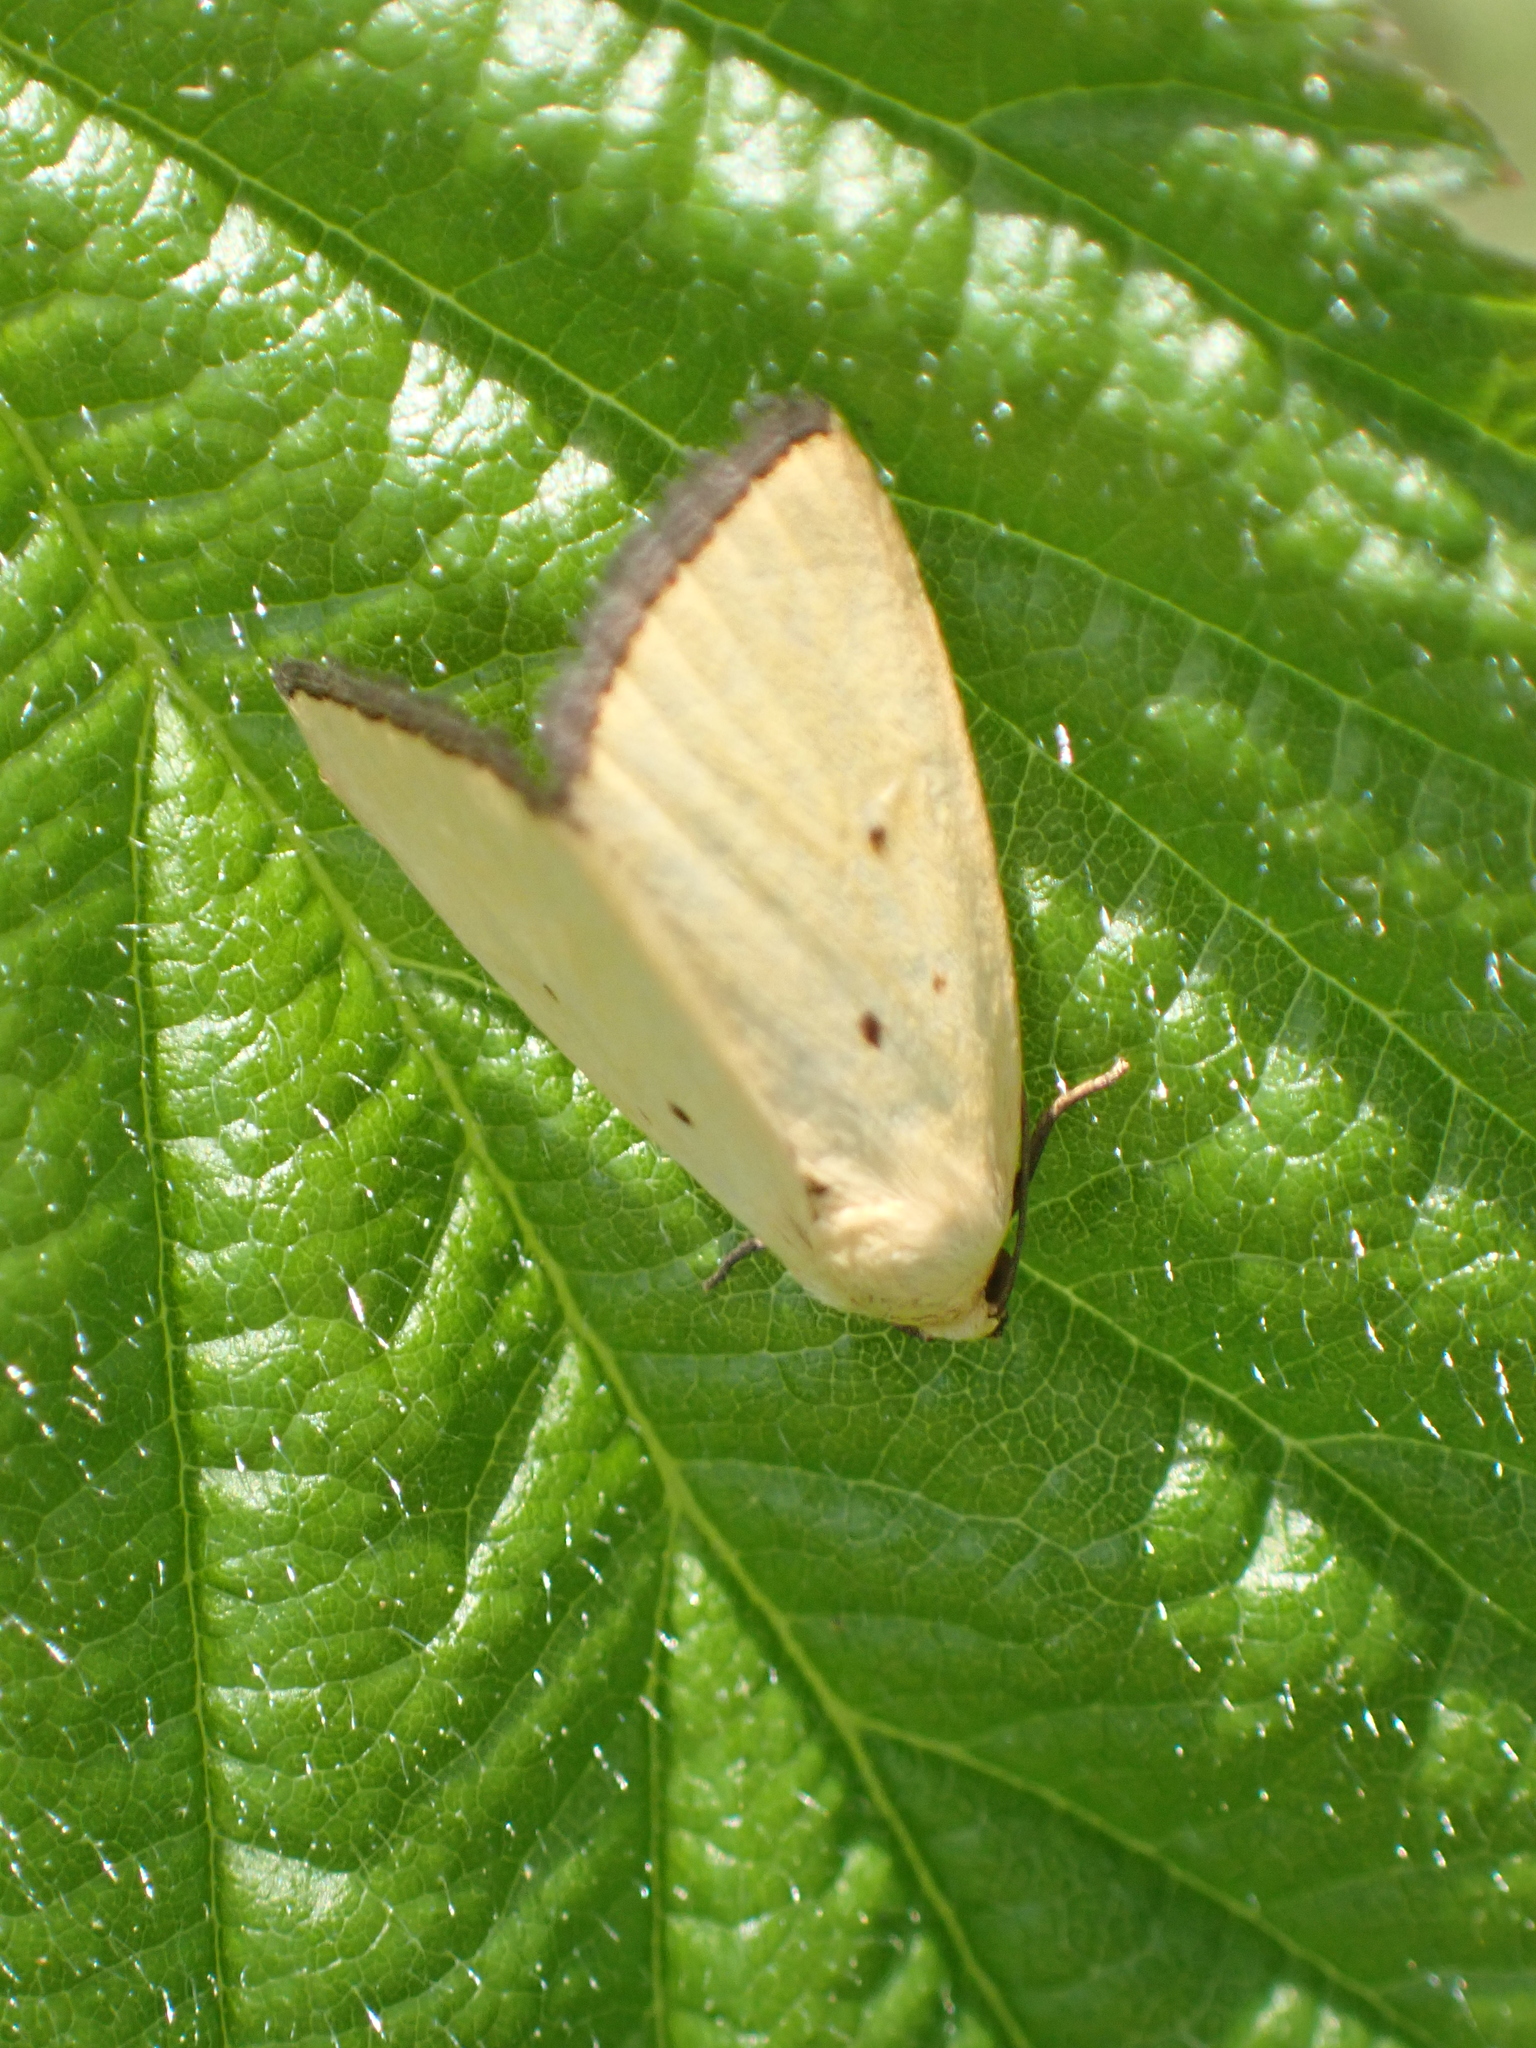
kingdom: Animalia
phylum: Arthropoda
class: Insecta
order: Lepidoptera
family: Noctuidae
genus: Marimatha
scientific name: Marimatha nigrofimbria
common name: Black-bordered lemon moth
